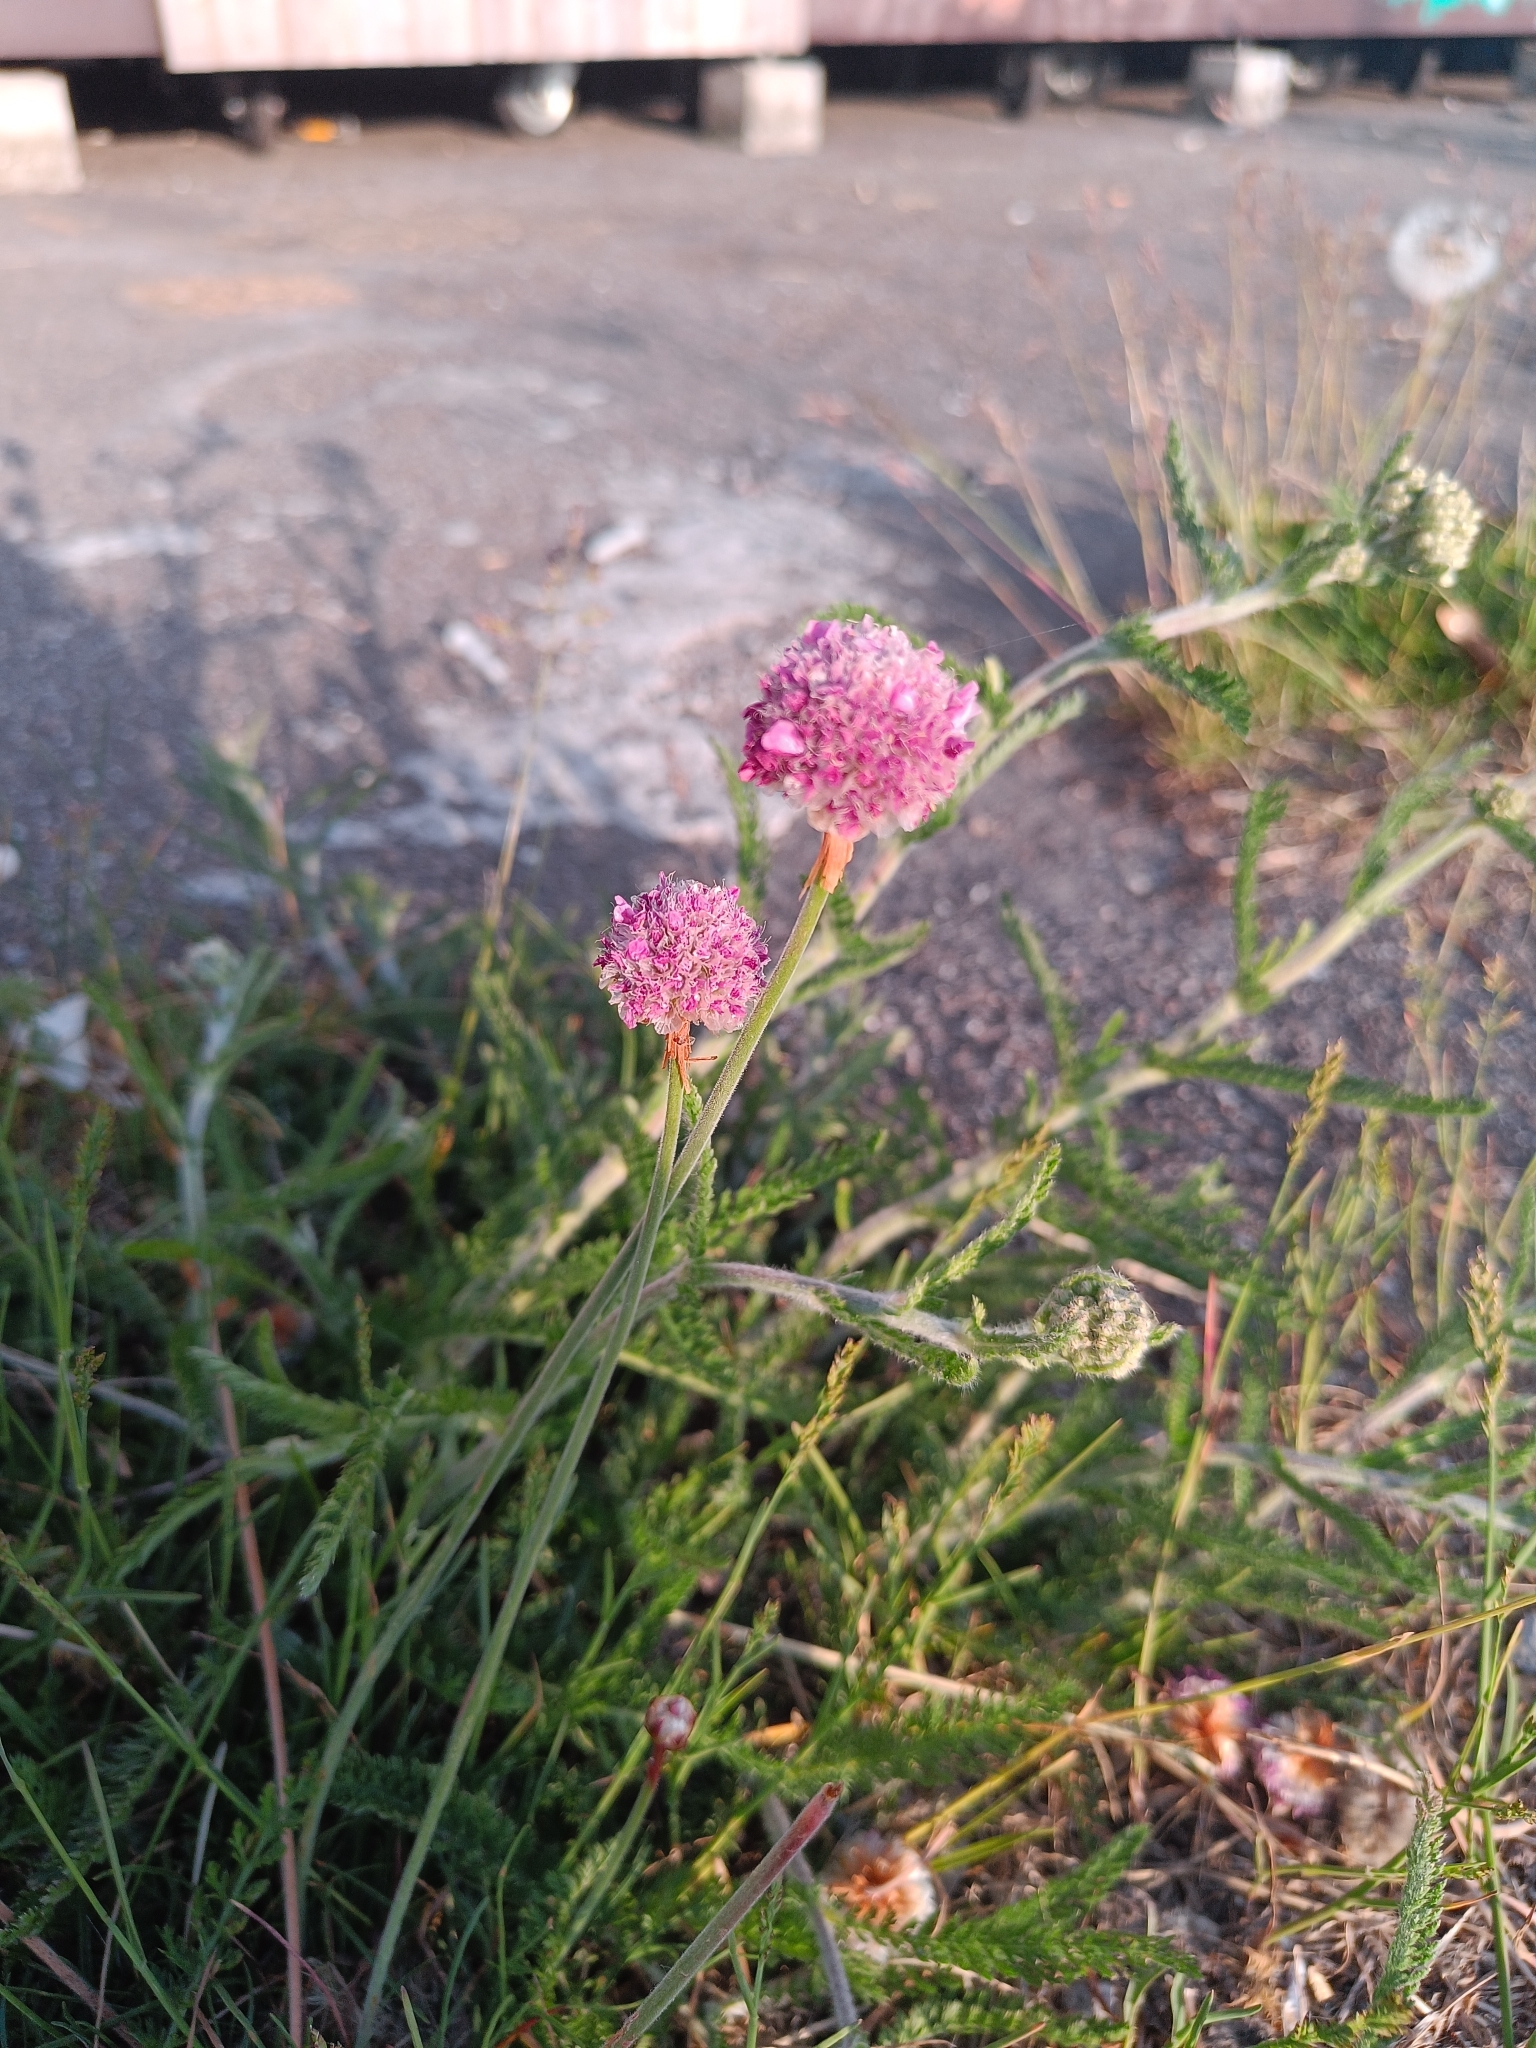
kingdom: Plantae
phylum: Tracheophyta
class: Magnoliopsida
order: Caryophyllales
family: Plumbaginaceae
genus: Armeria
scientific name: Armeria maritima
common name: Thrift
